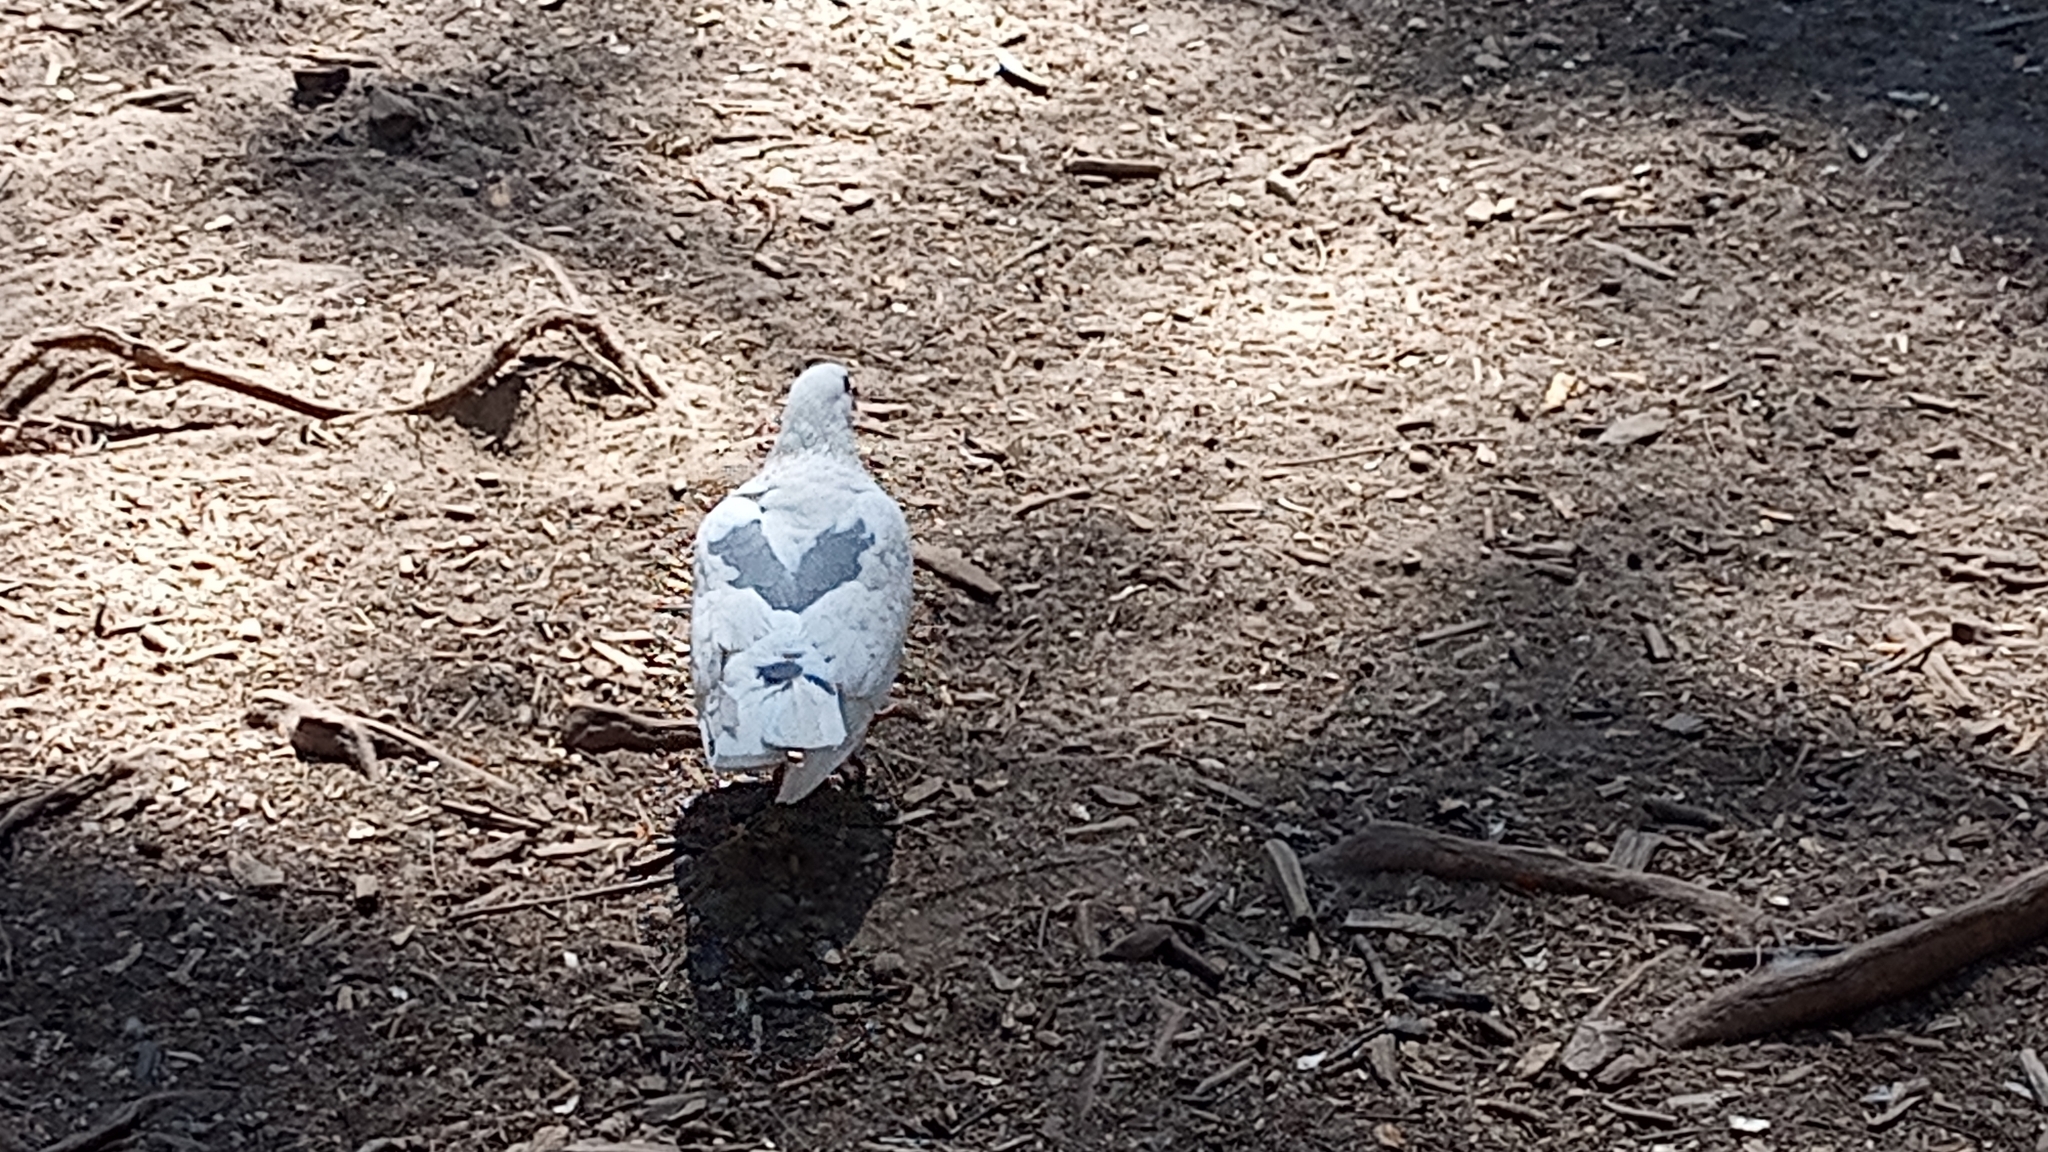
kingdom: Animalia
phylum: Chordata
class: Aves
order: Columbiformes
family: Columbidae
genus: Columba
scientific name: Columba livia
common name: Rock pigeon
